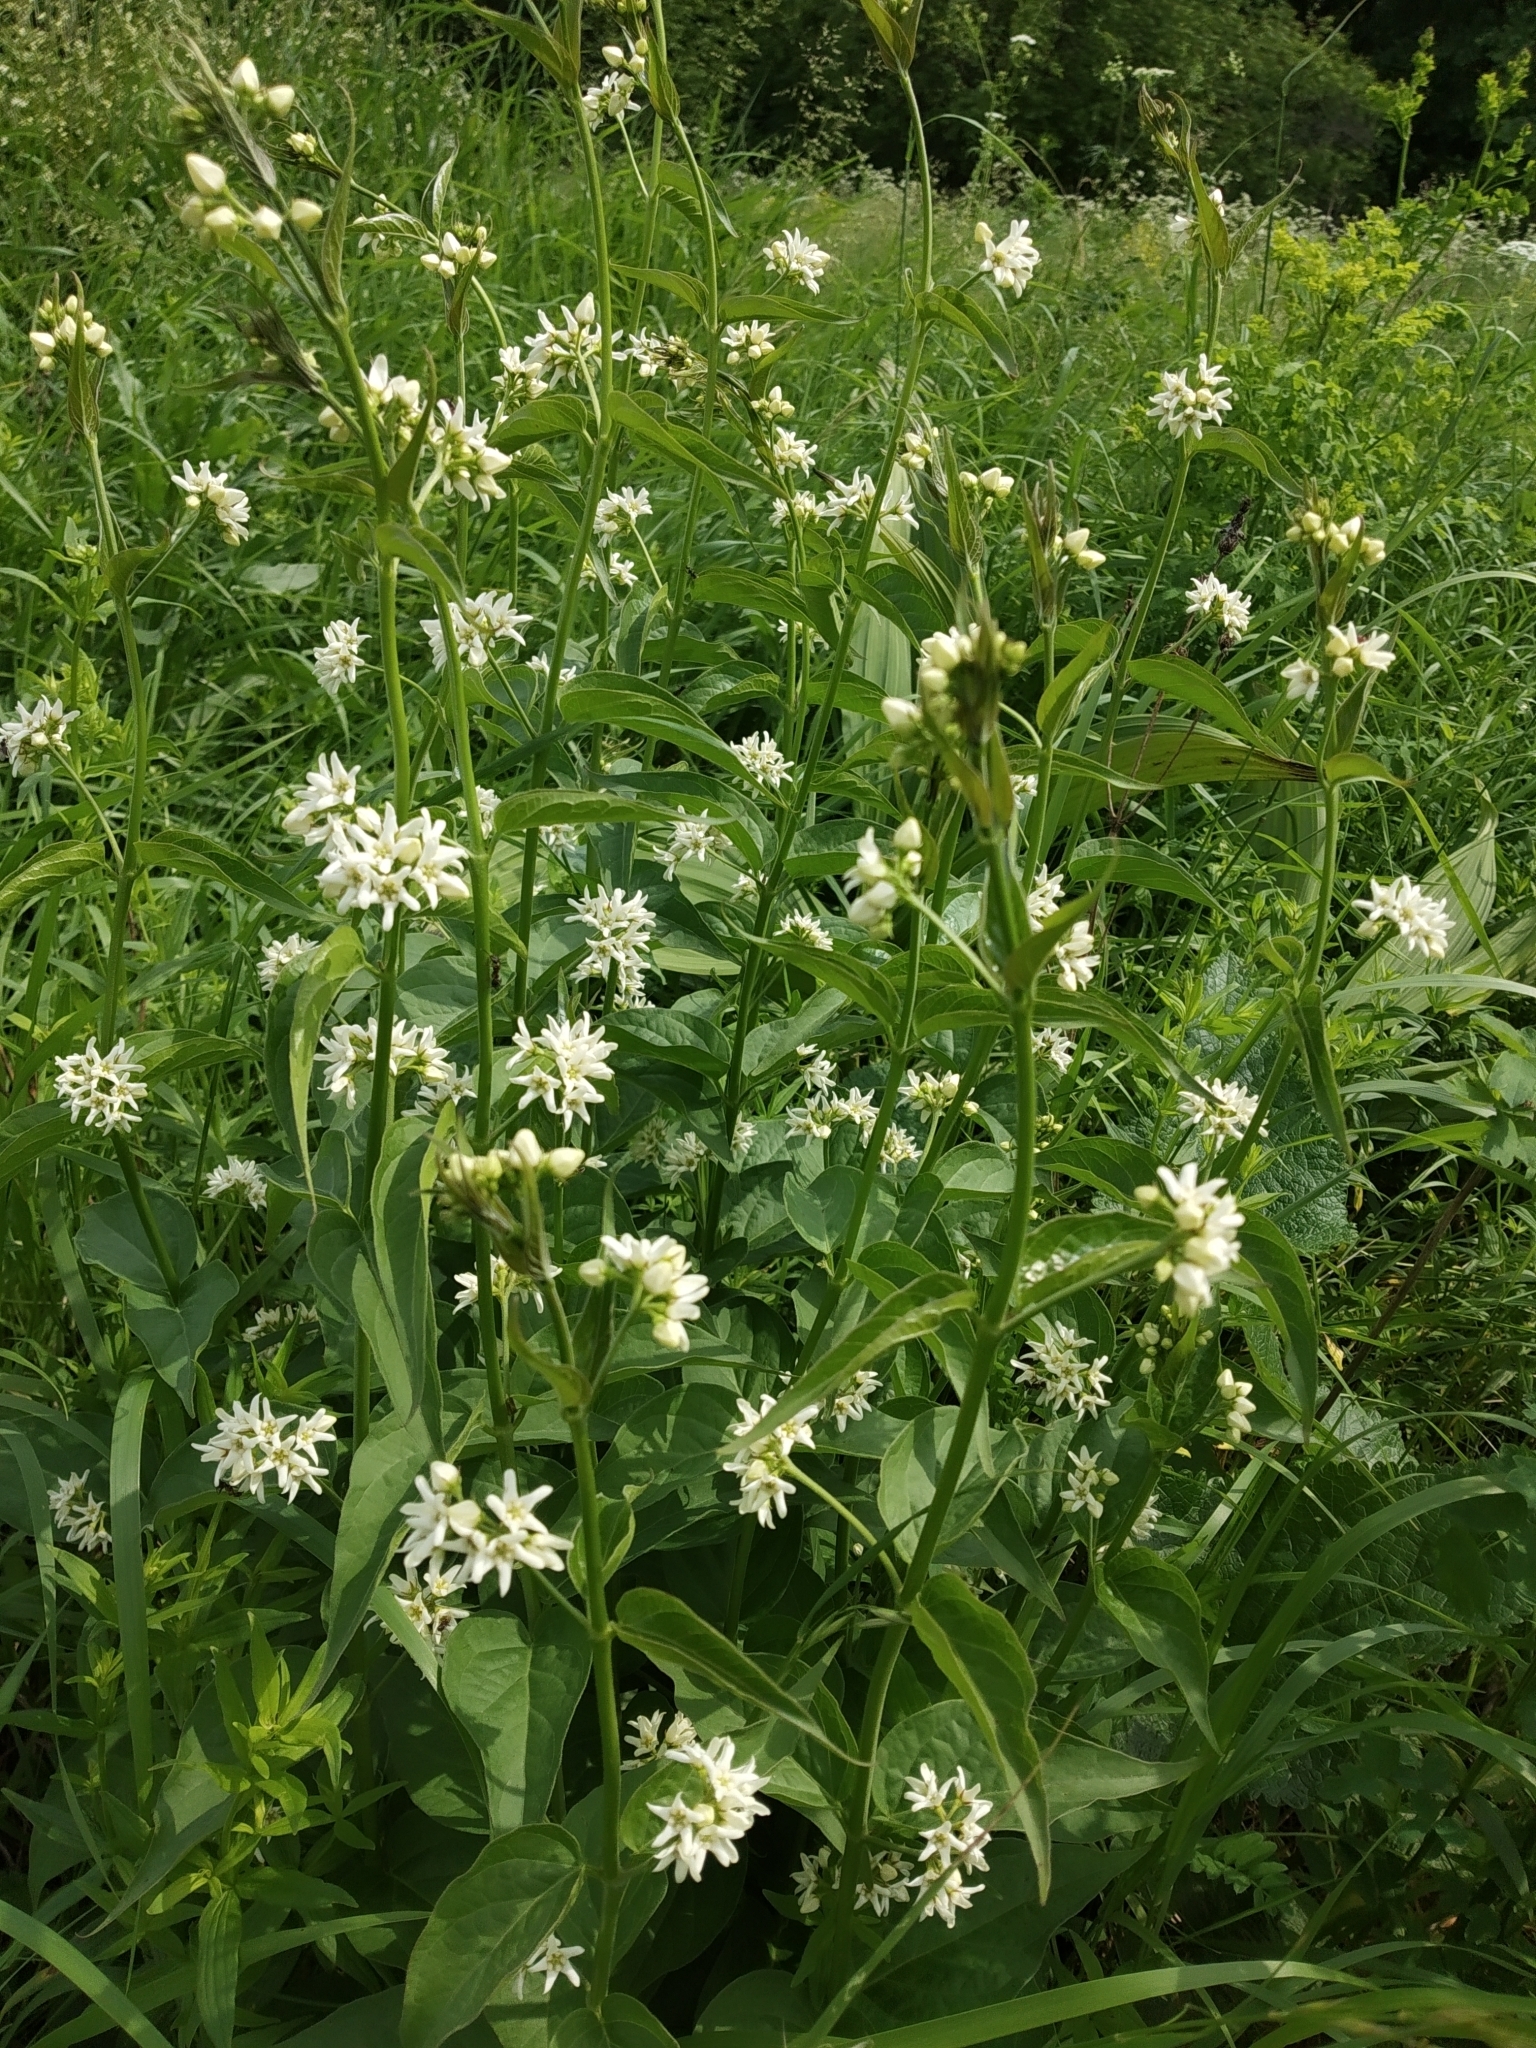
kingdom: Plantae
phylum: Tracheophyta
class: Magnoliopsida
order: Gentianales
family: Apocynaceae
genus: Vincetoxicum
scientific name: Vincetoxicum hirundinaria
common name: White swallowwort
